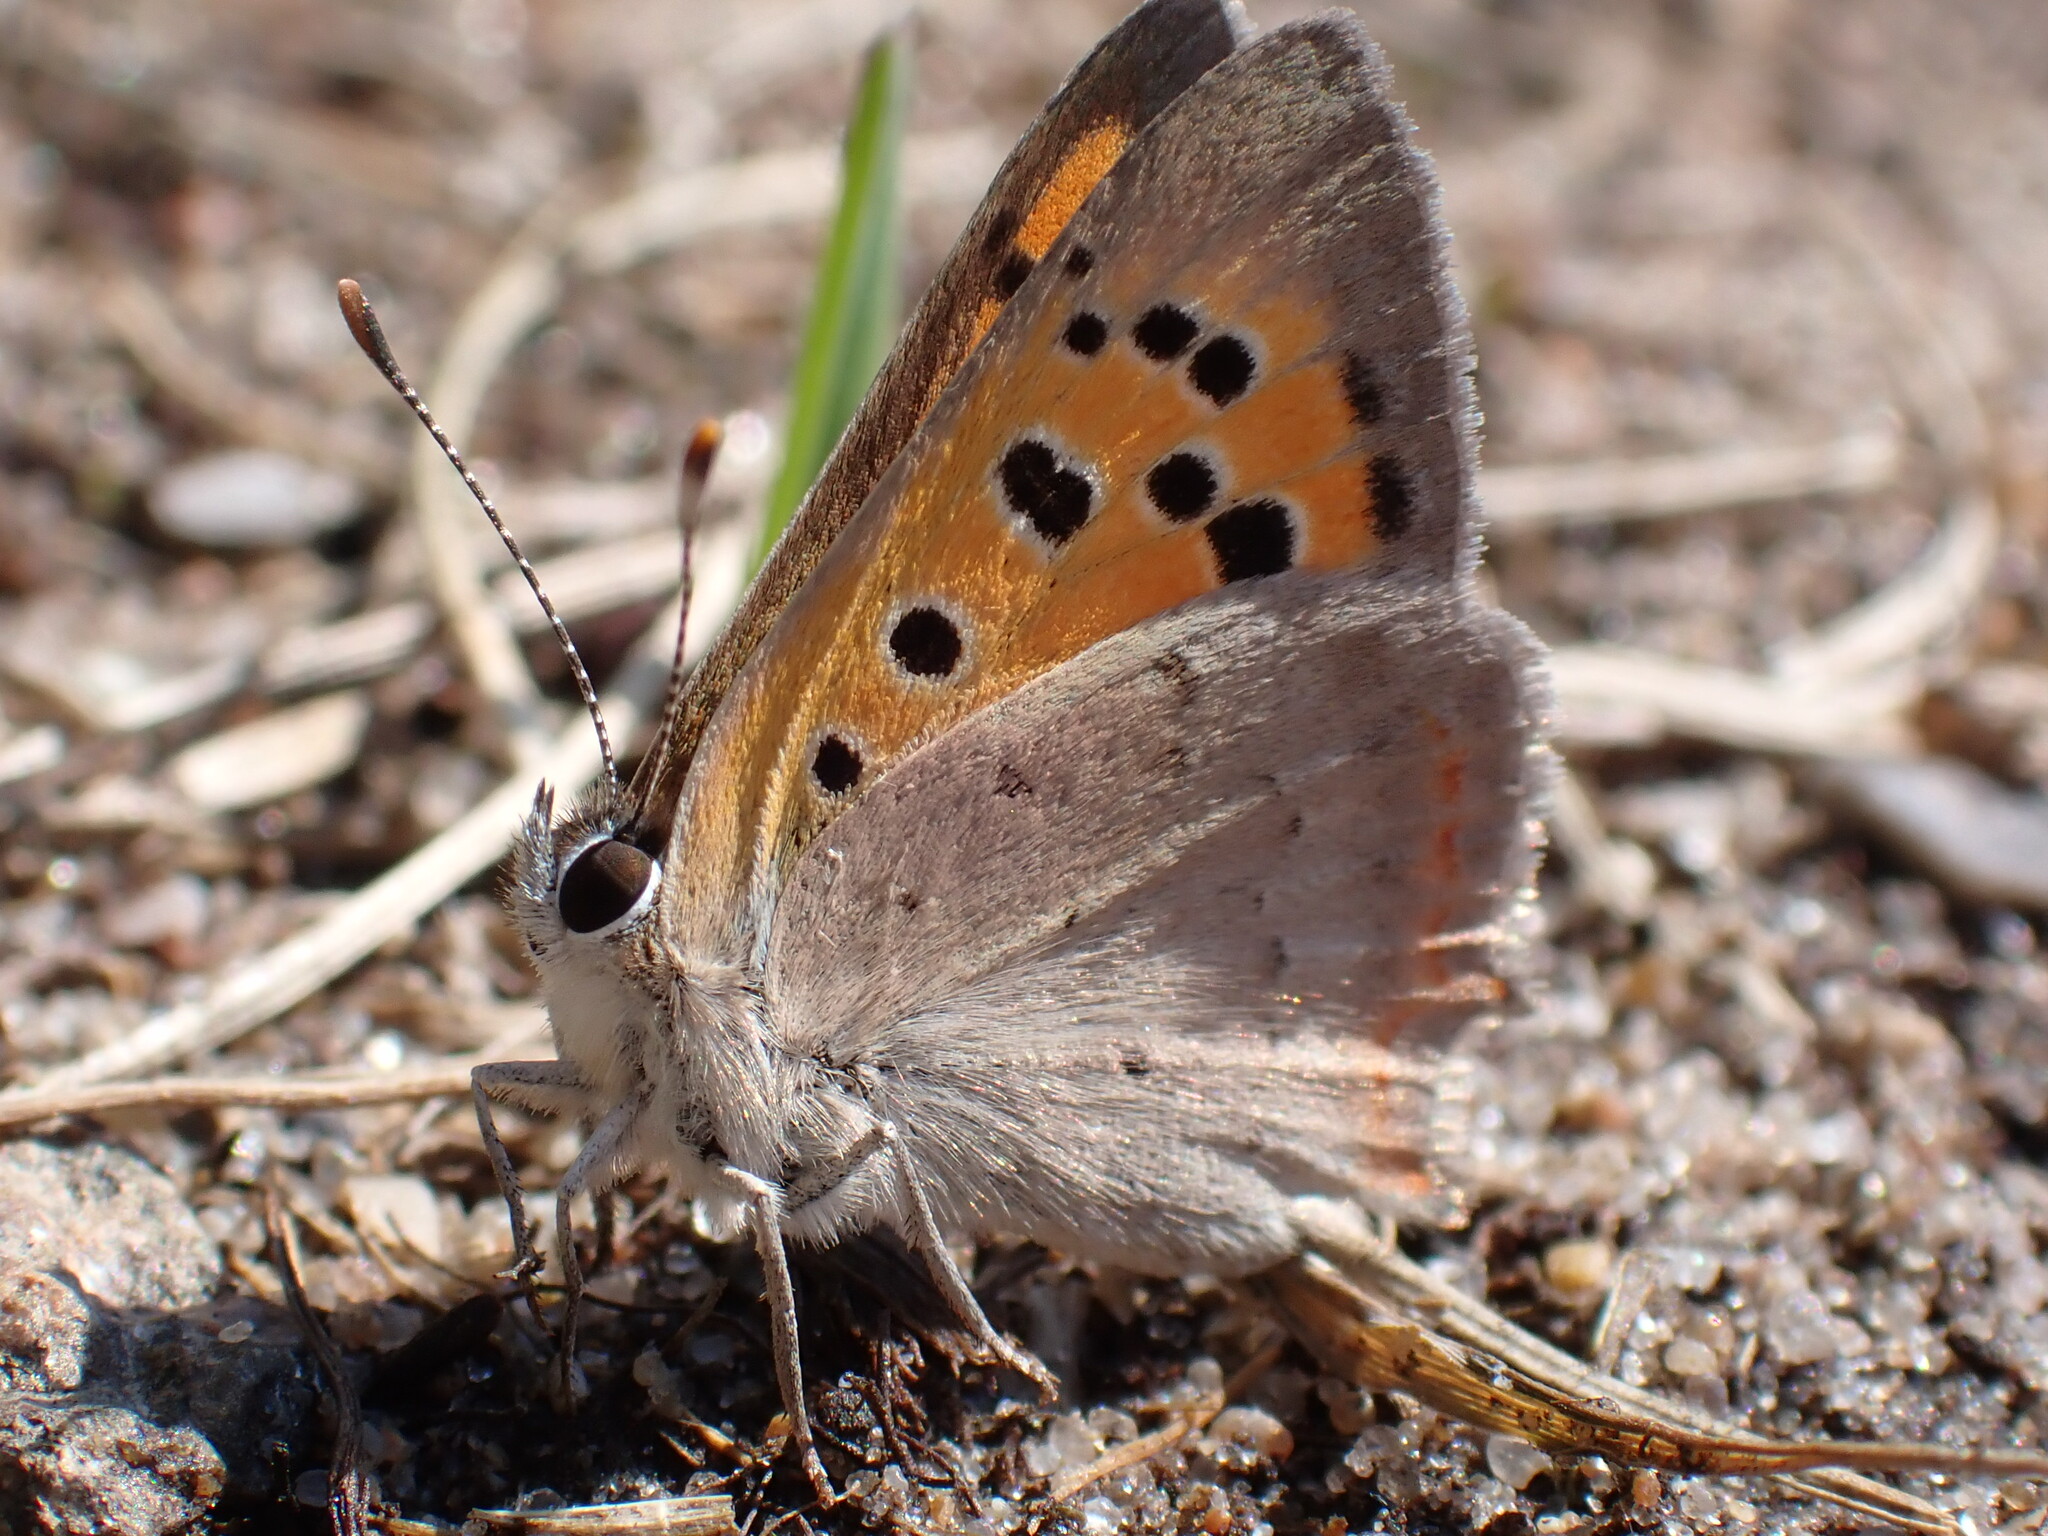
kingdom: Animalia
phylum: Arthropoda
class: Insecta
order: Lepidoptera
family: Lycaenidae
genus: Lycaena
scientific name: Lycaena phlaeas
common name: Small copper
